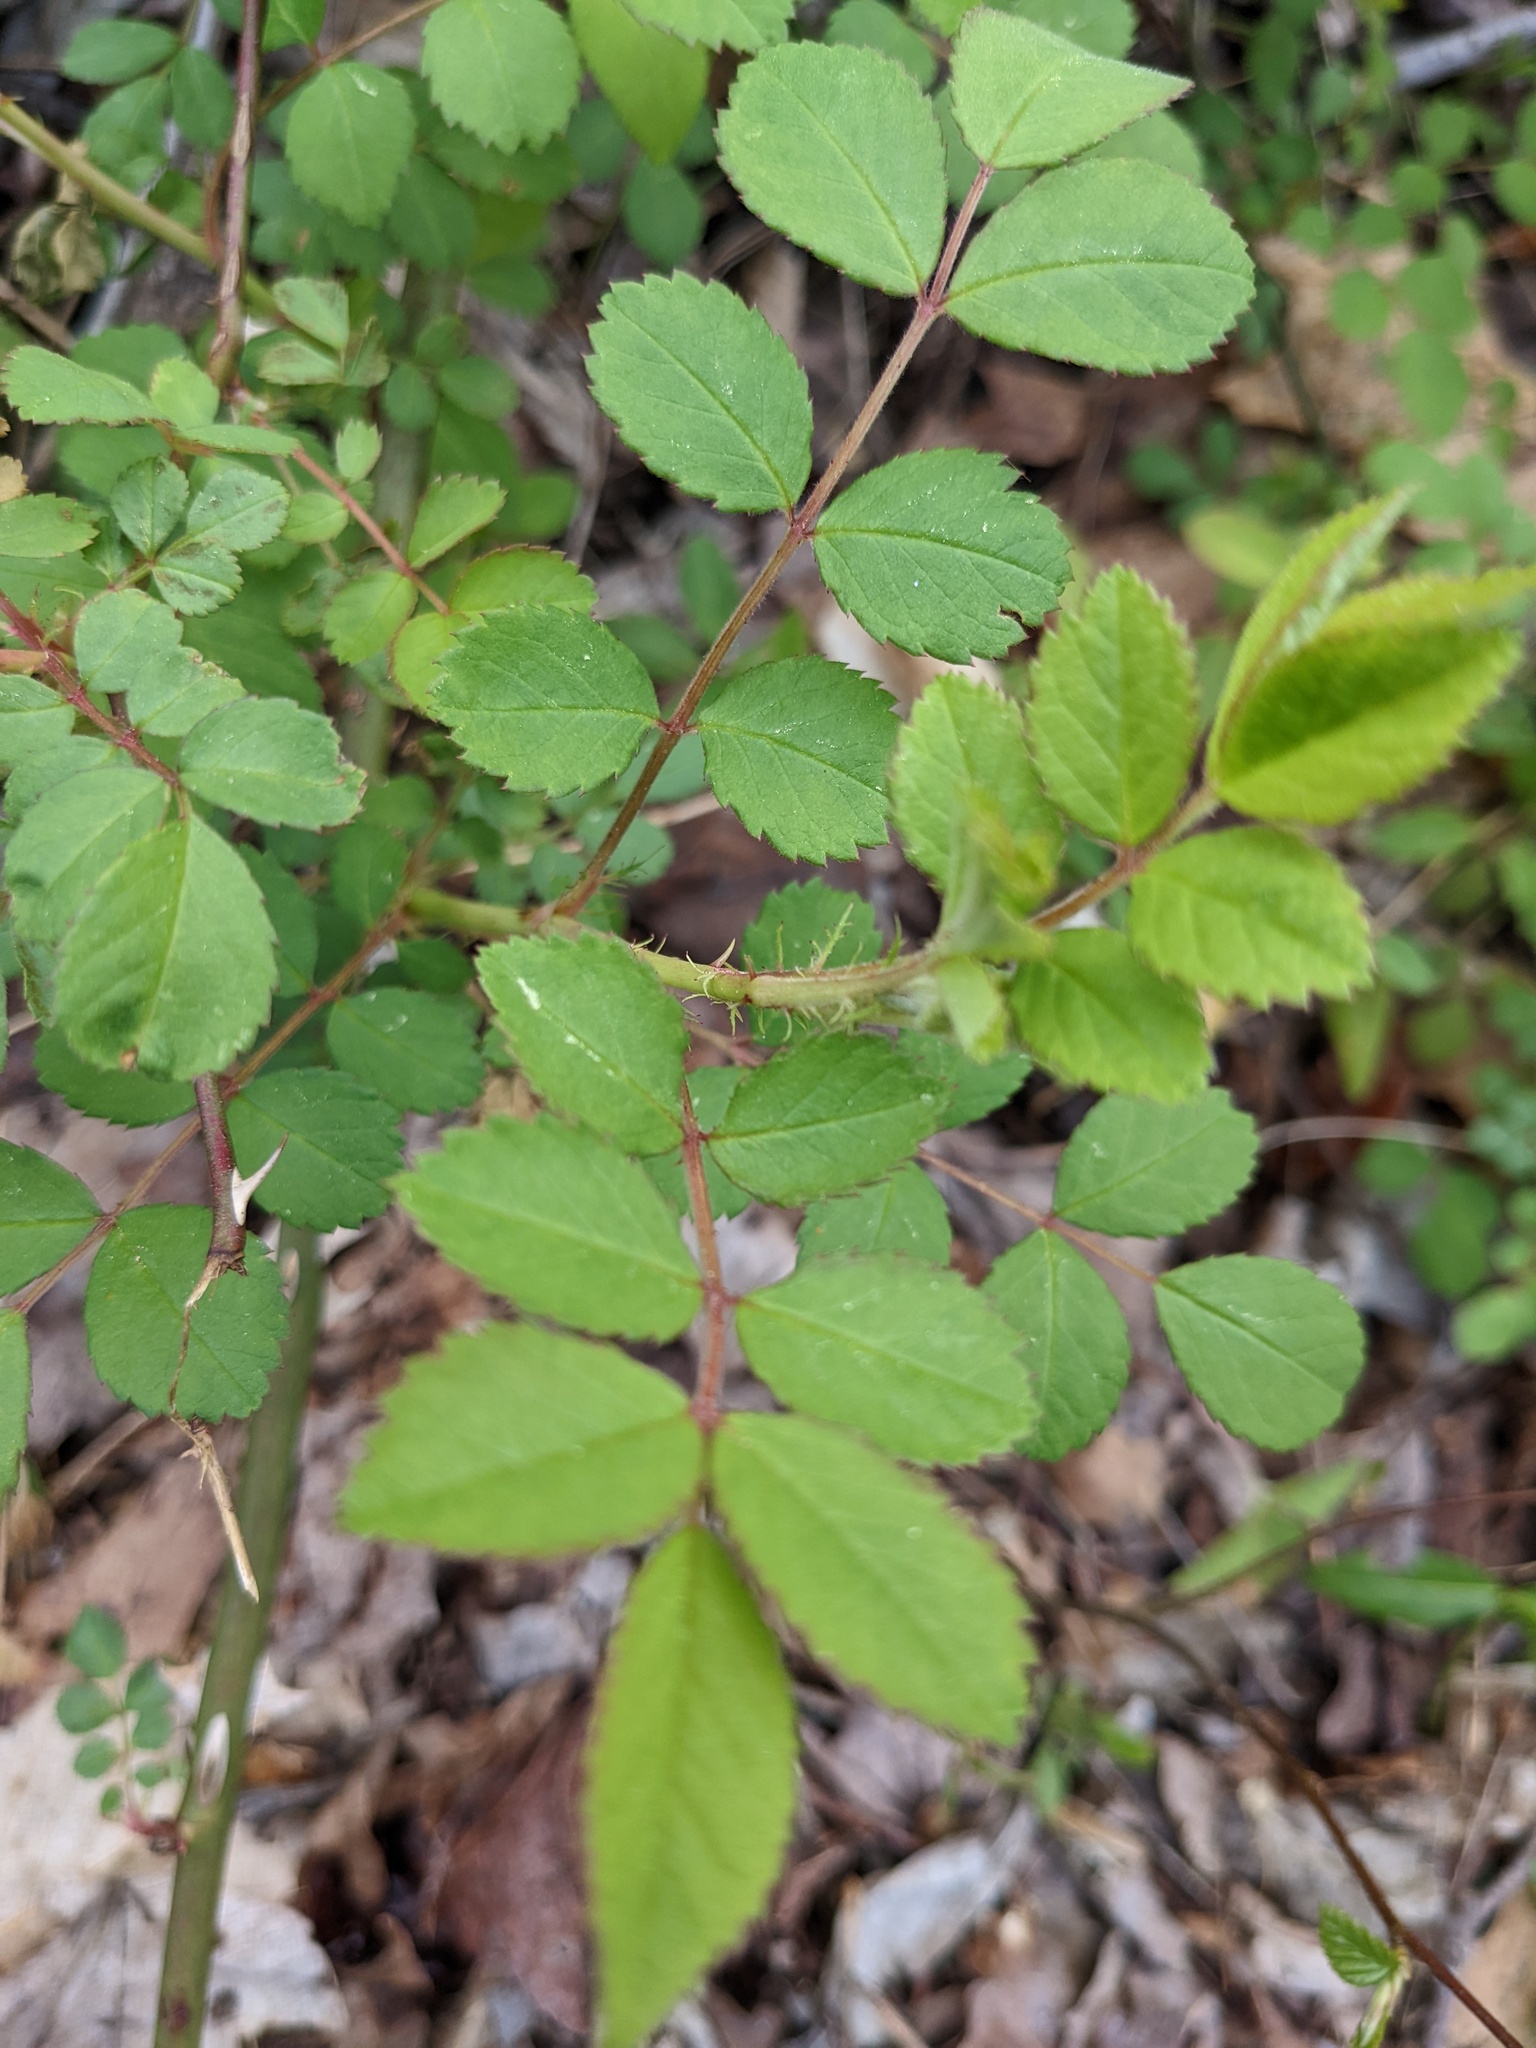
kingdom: Plantae
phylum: Tracheophyta
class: Magnoliopsida
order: Rosales
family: Rosaceae
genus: Rosa
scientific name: Rosa multiflora
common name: Multiflora rose
